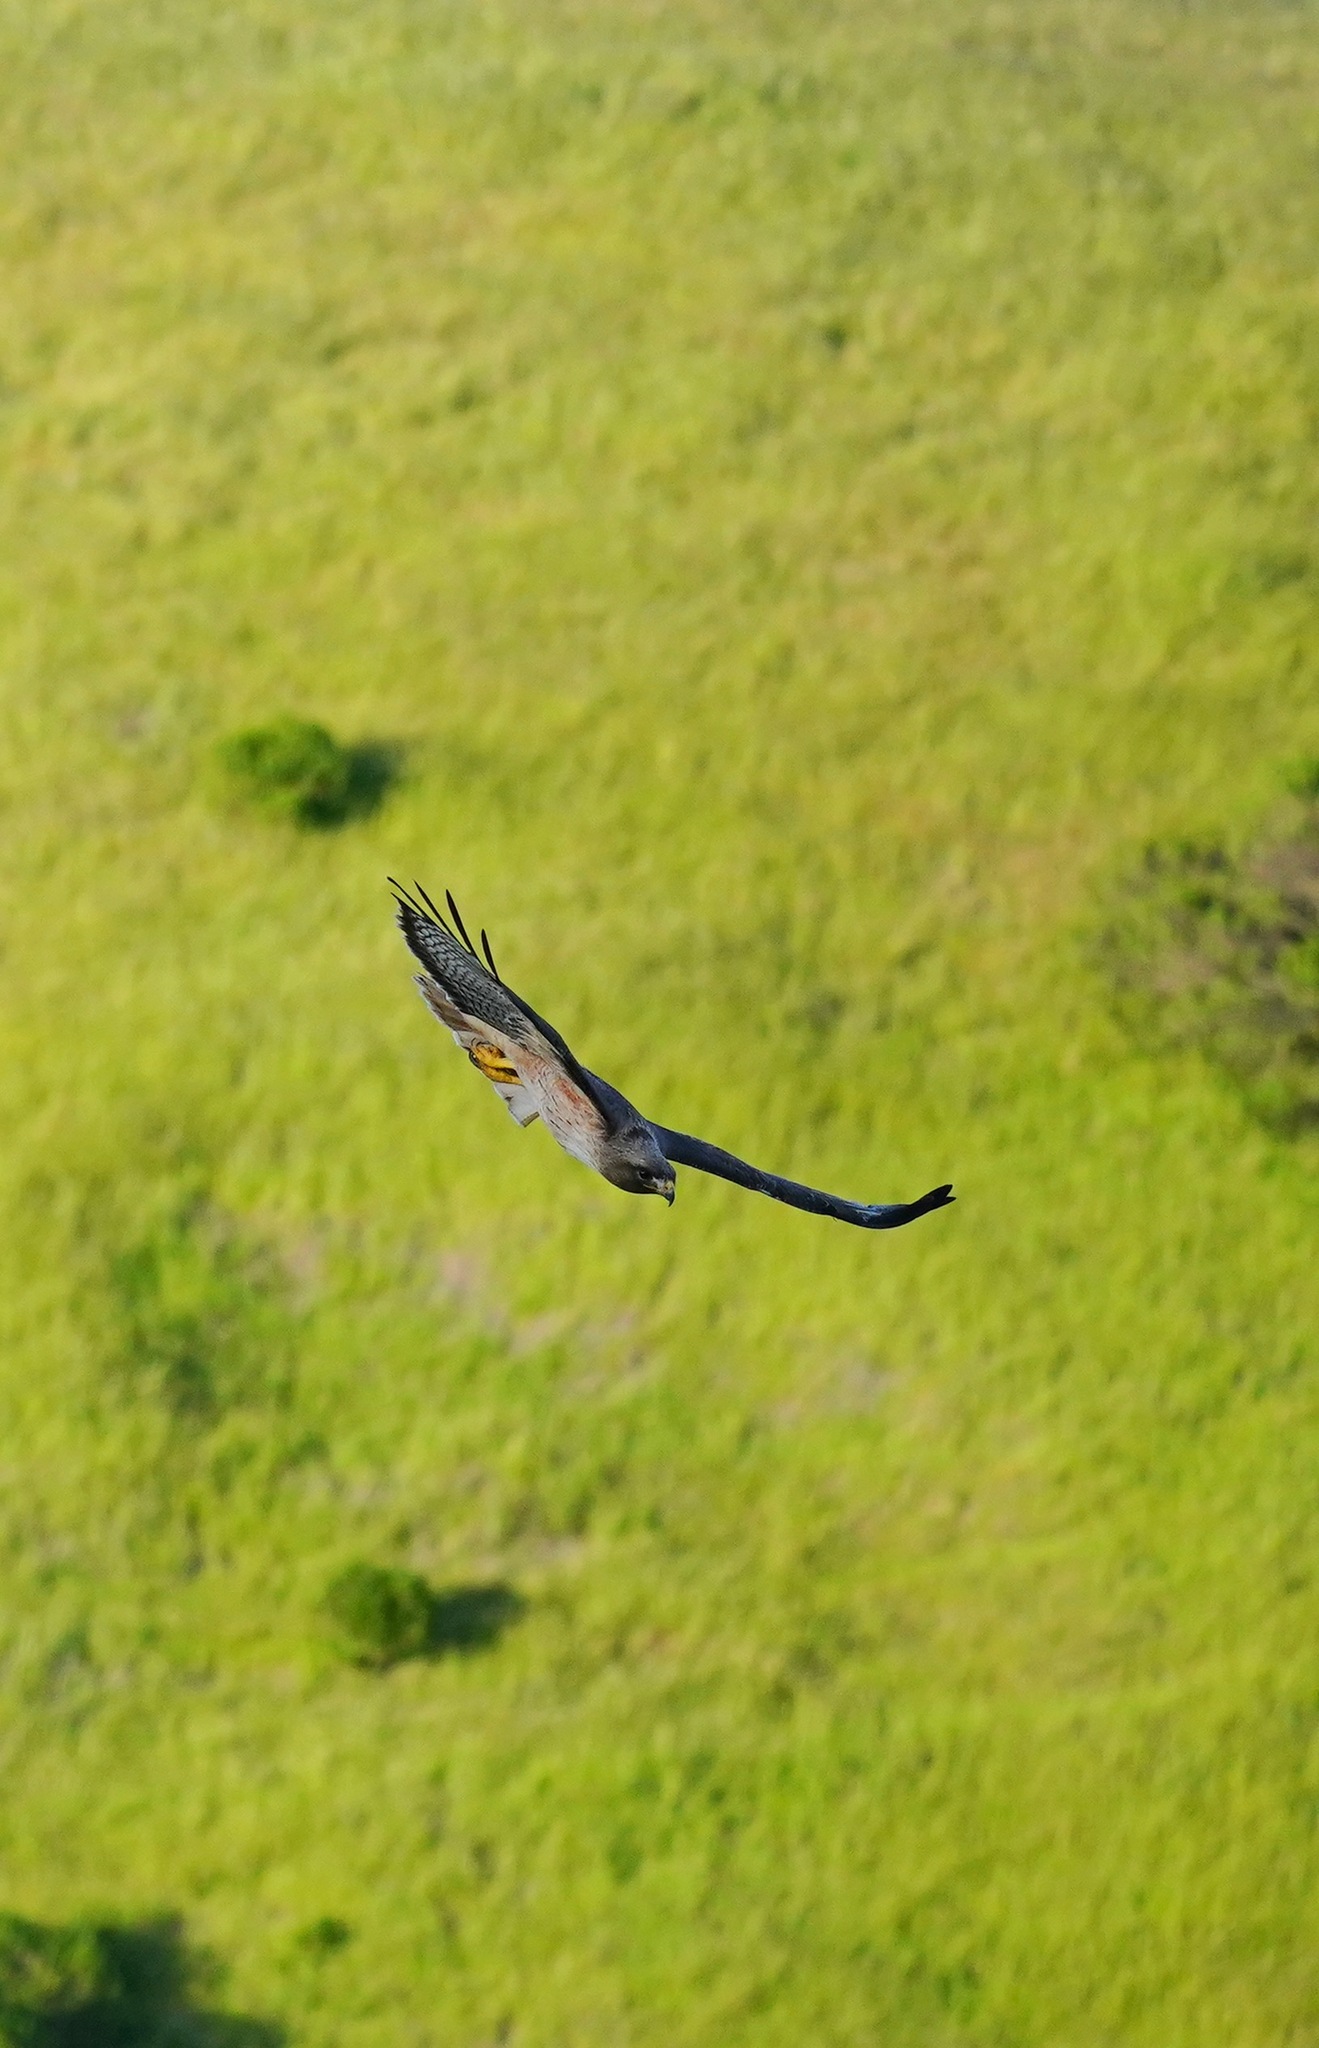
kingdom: Animalia
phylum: Chordata
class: Aves
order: Accipitriformes
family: Accipitridae
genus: Buteo
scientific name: Buteo jamaicensis
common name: Red-tailed hawk
